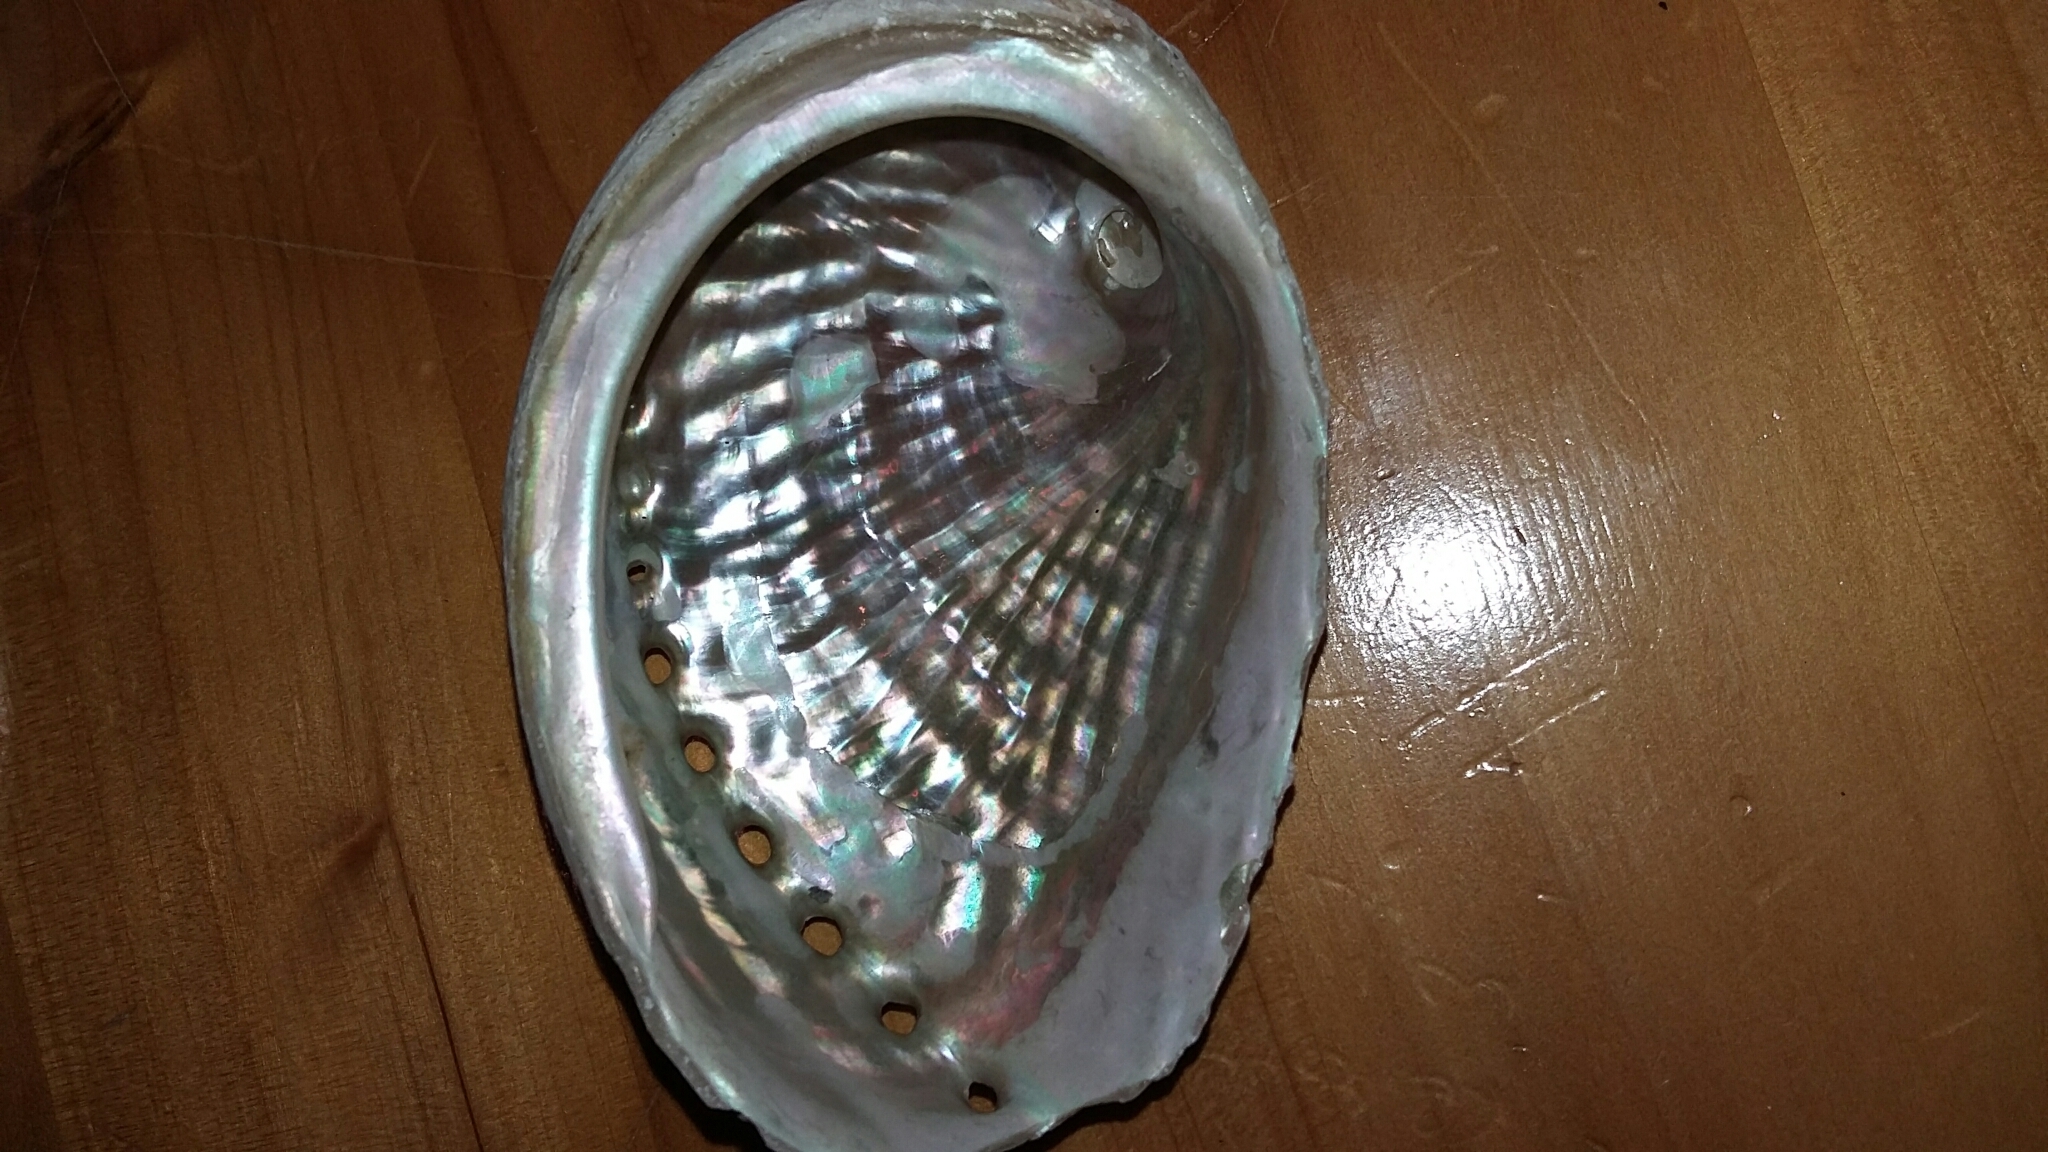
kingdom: Animalia
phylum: Mollusca
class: Gastropoda
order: Lepetellida
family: Haliotidae
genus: Haliotis
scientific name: Haliotis australis
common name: Silver abalone
